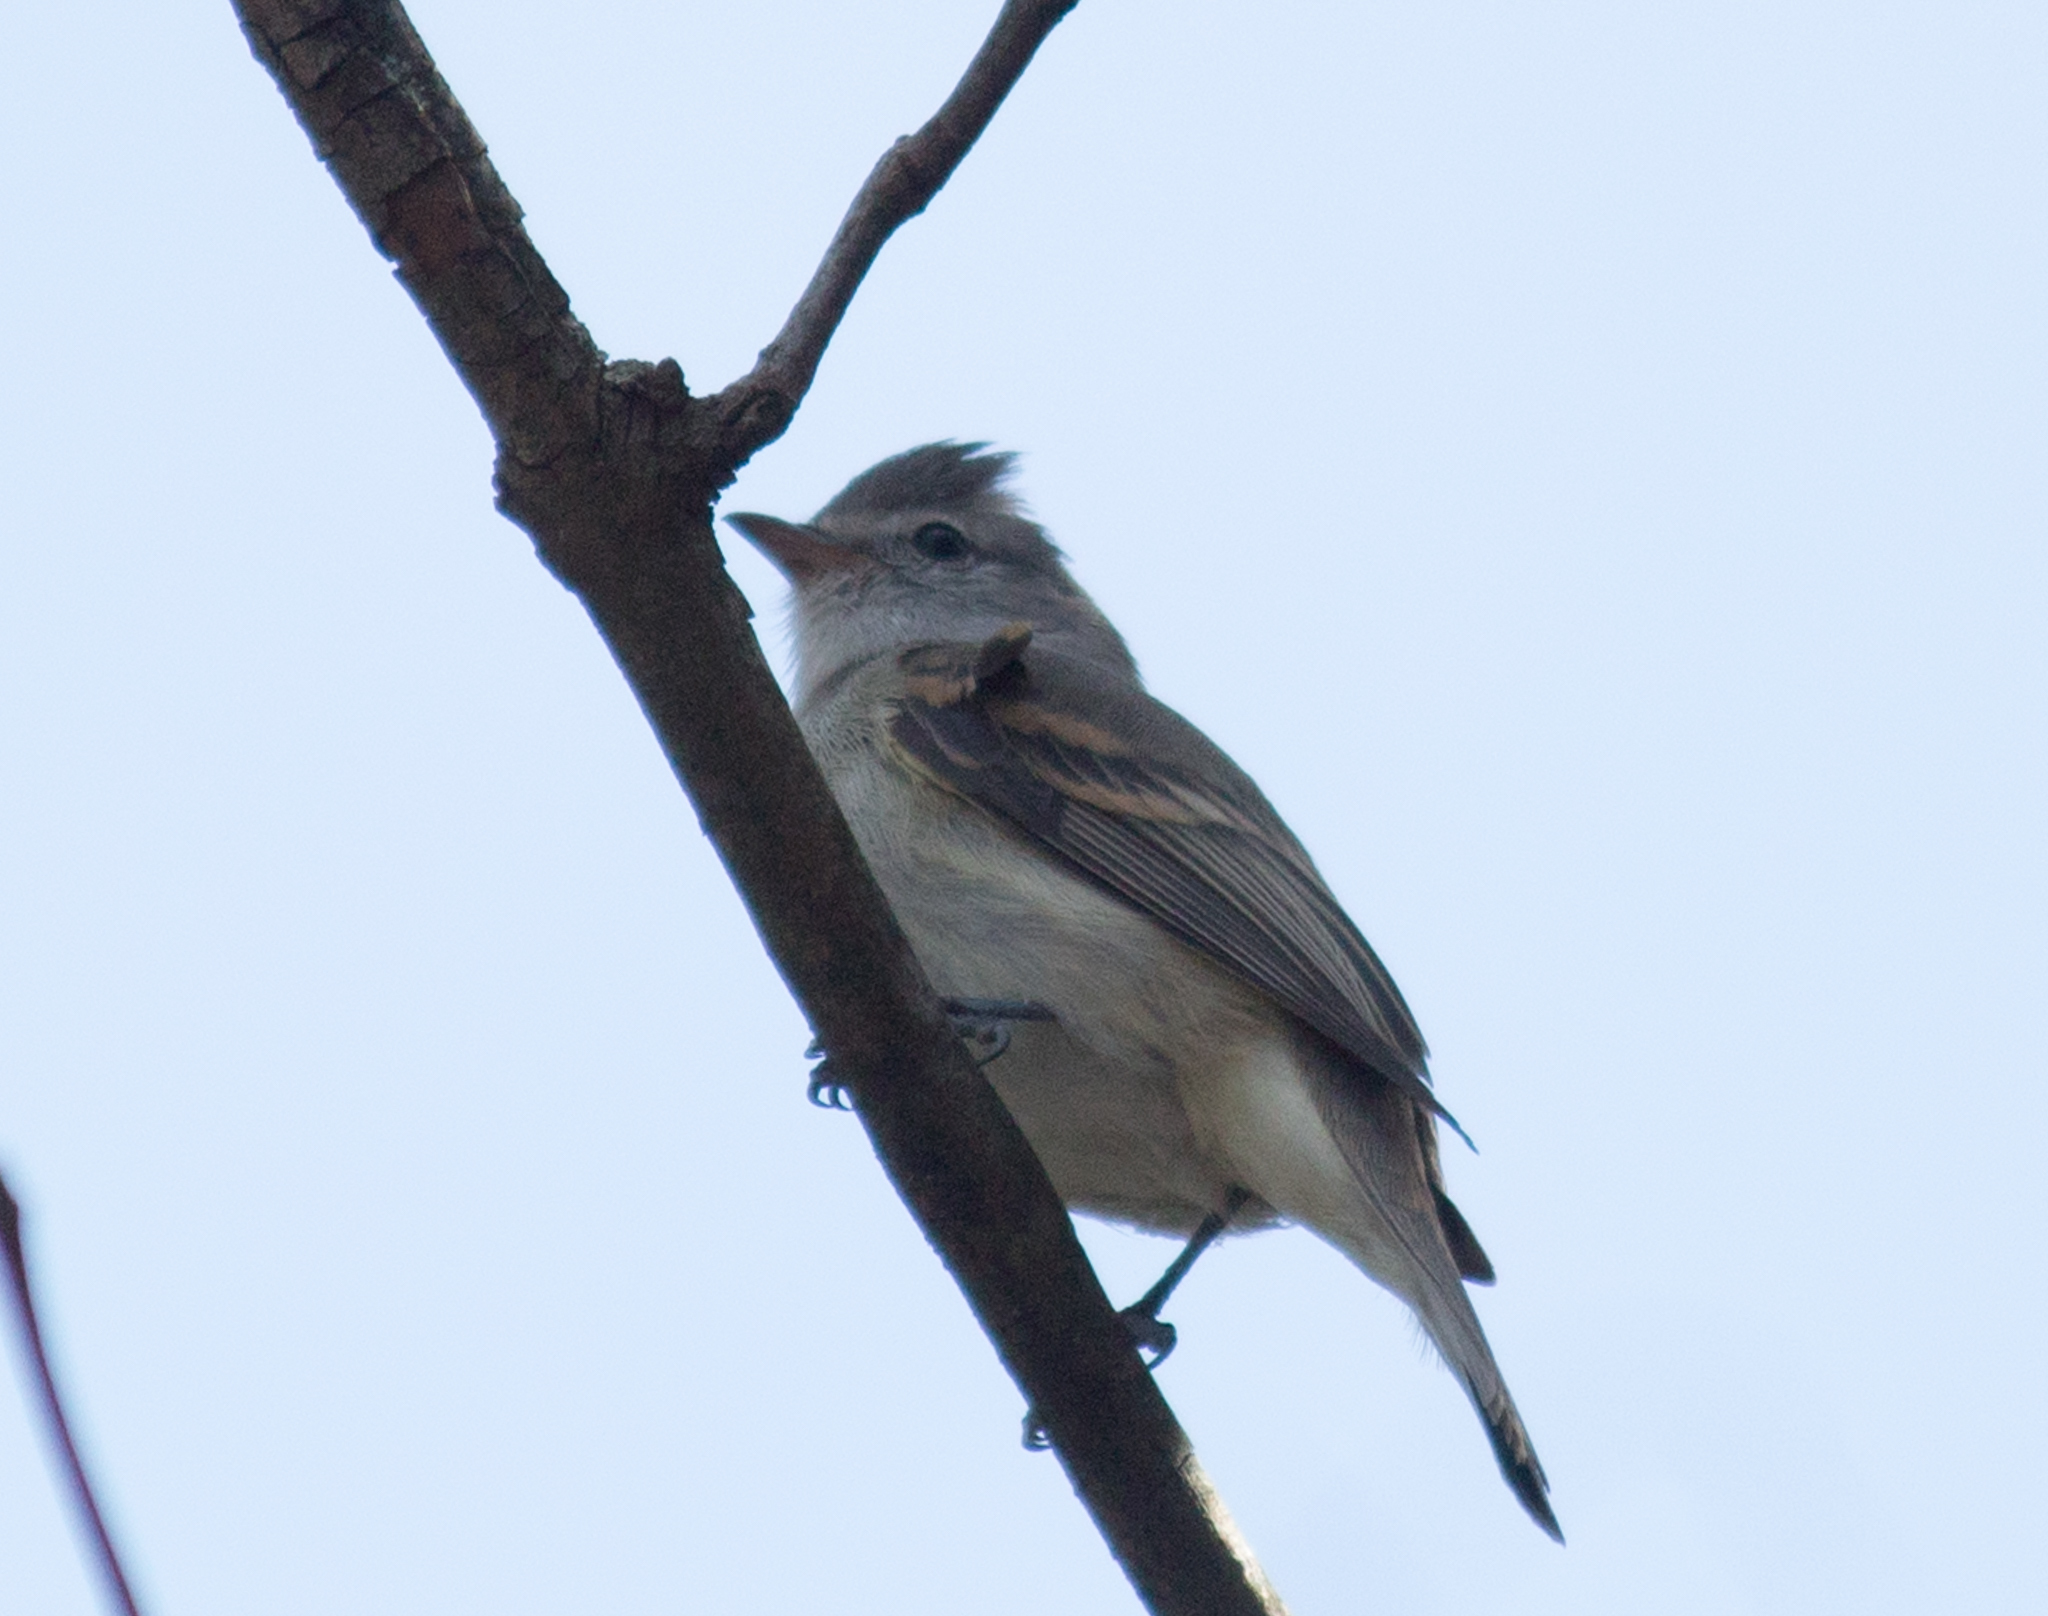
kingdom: Animalia
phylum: Chordata
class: Aves
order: Passeriformes
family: Tyrannidae
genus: Camptostoma
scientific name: Camptostoma obsoletum
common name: Southern beardless-tyrannulet
